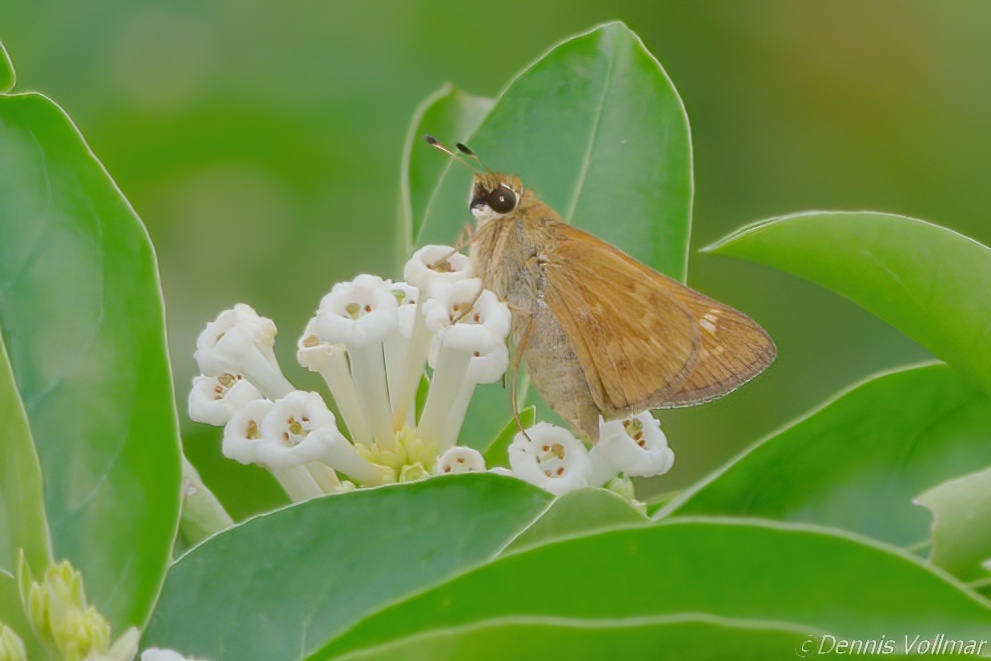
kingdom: Animalia
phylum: Arthropoda
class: Insecta
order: Lepidoptera
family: Hesperiidae
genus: Atalopedes
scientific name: Atalopedes
